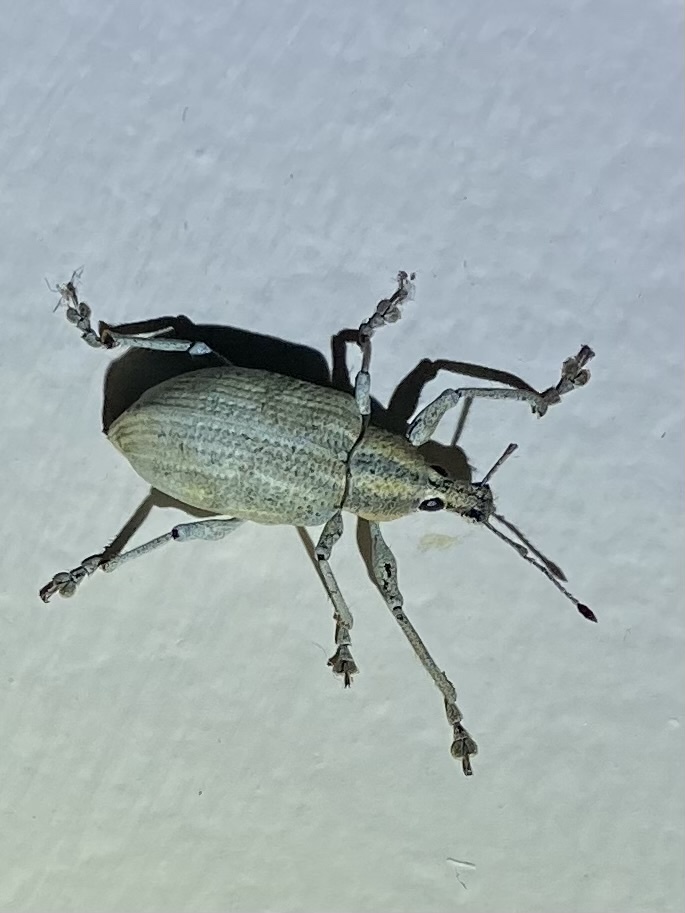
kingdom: Animalia
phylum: Arthropoda
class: Insecta
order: Coleoptera
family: Curculionidae
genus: Exophthalmus
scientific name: Exophthalmus pulverulentus
